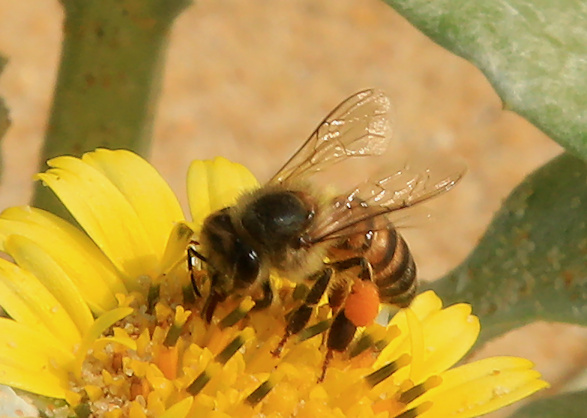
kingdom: Animalia
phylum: Arthropoda
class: Insecta
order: Hymenoptera
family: Apidae
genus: Apis
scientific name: Apis mellifera
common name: Honey bee
